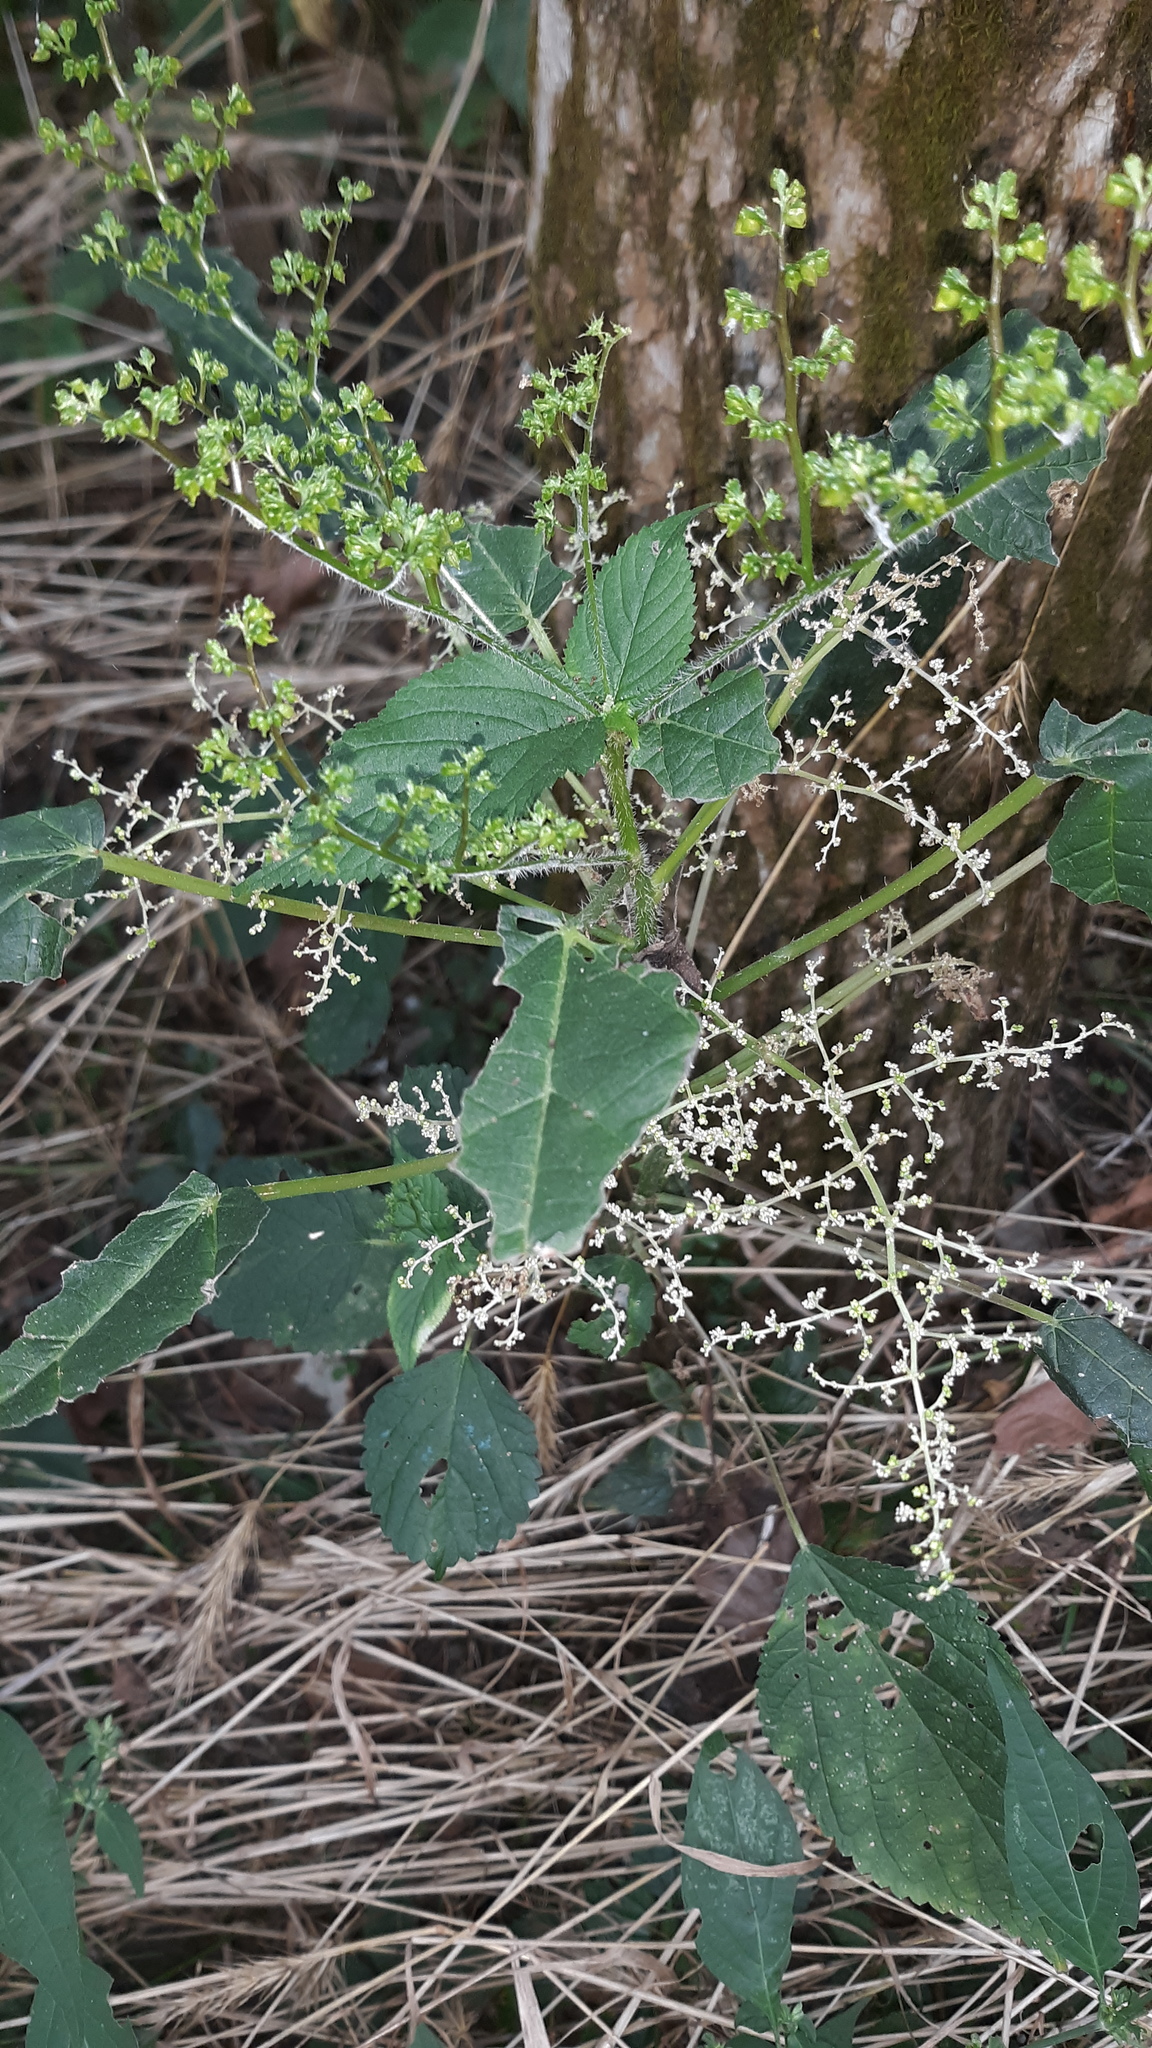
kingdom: Plantae
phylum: Tracheophyta
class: Magnoliopsida
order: Rosales
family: Urticaceae
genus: Laportea
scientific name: Laportea canadensis
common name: Canada nettle
